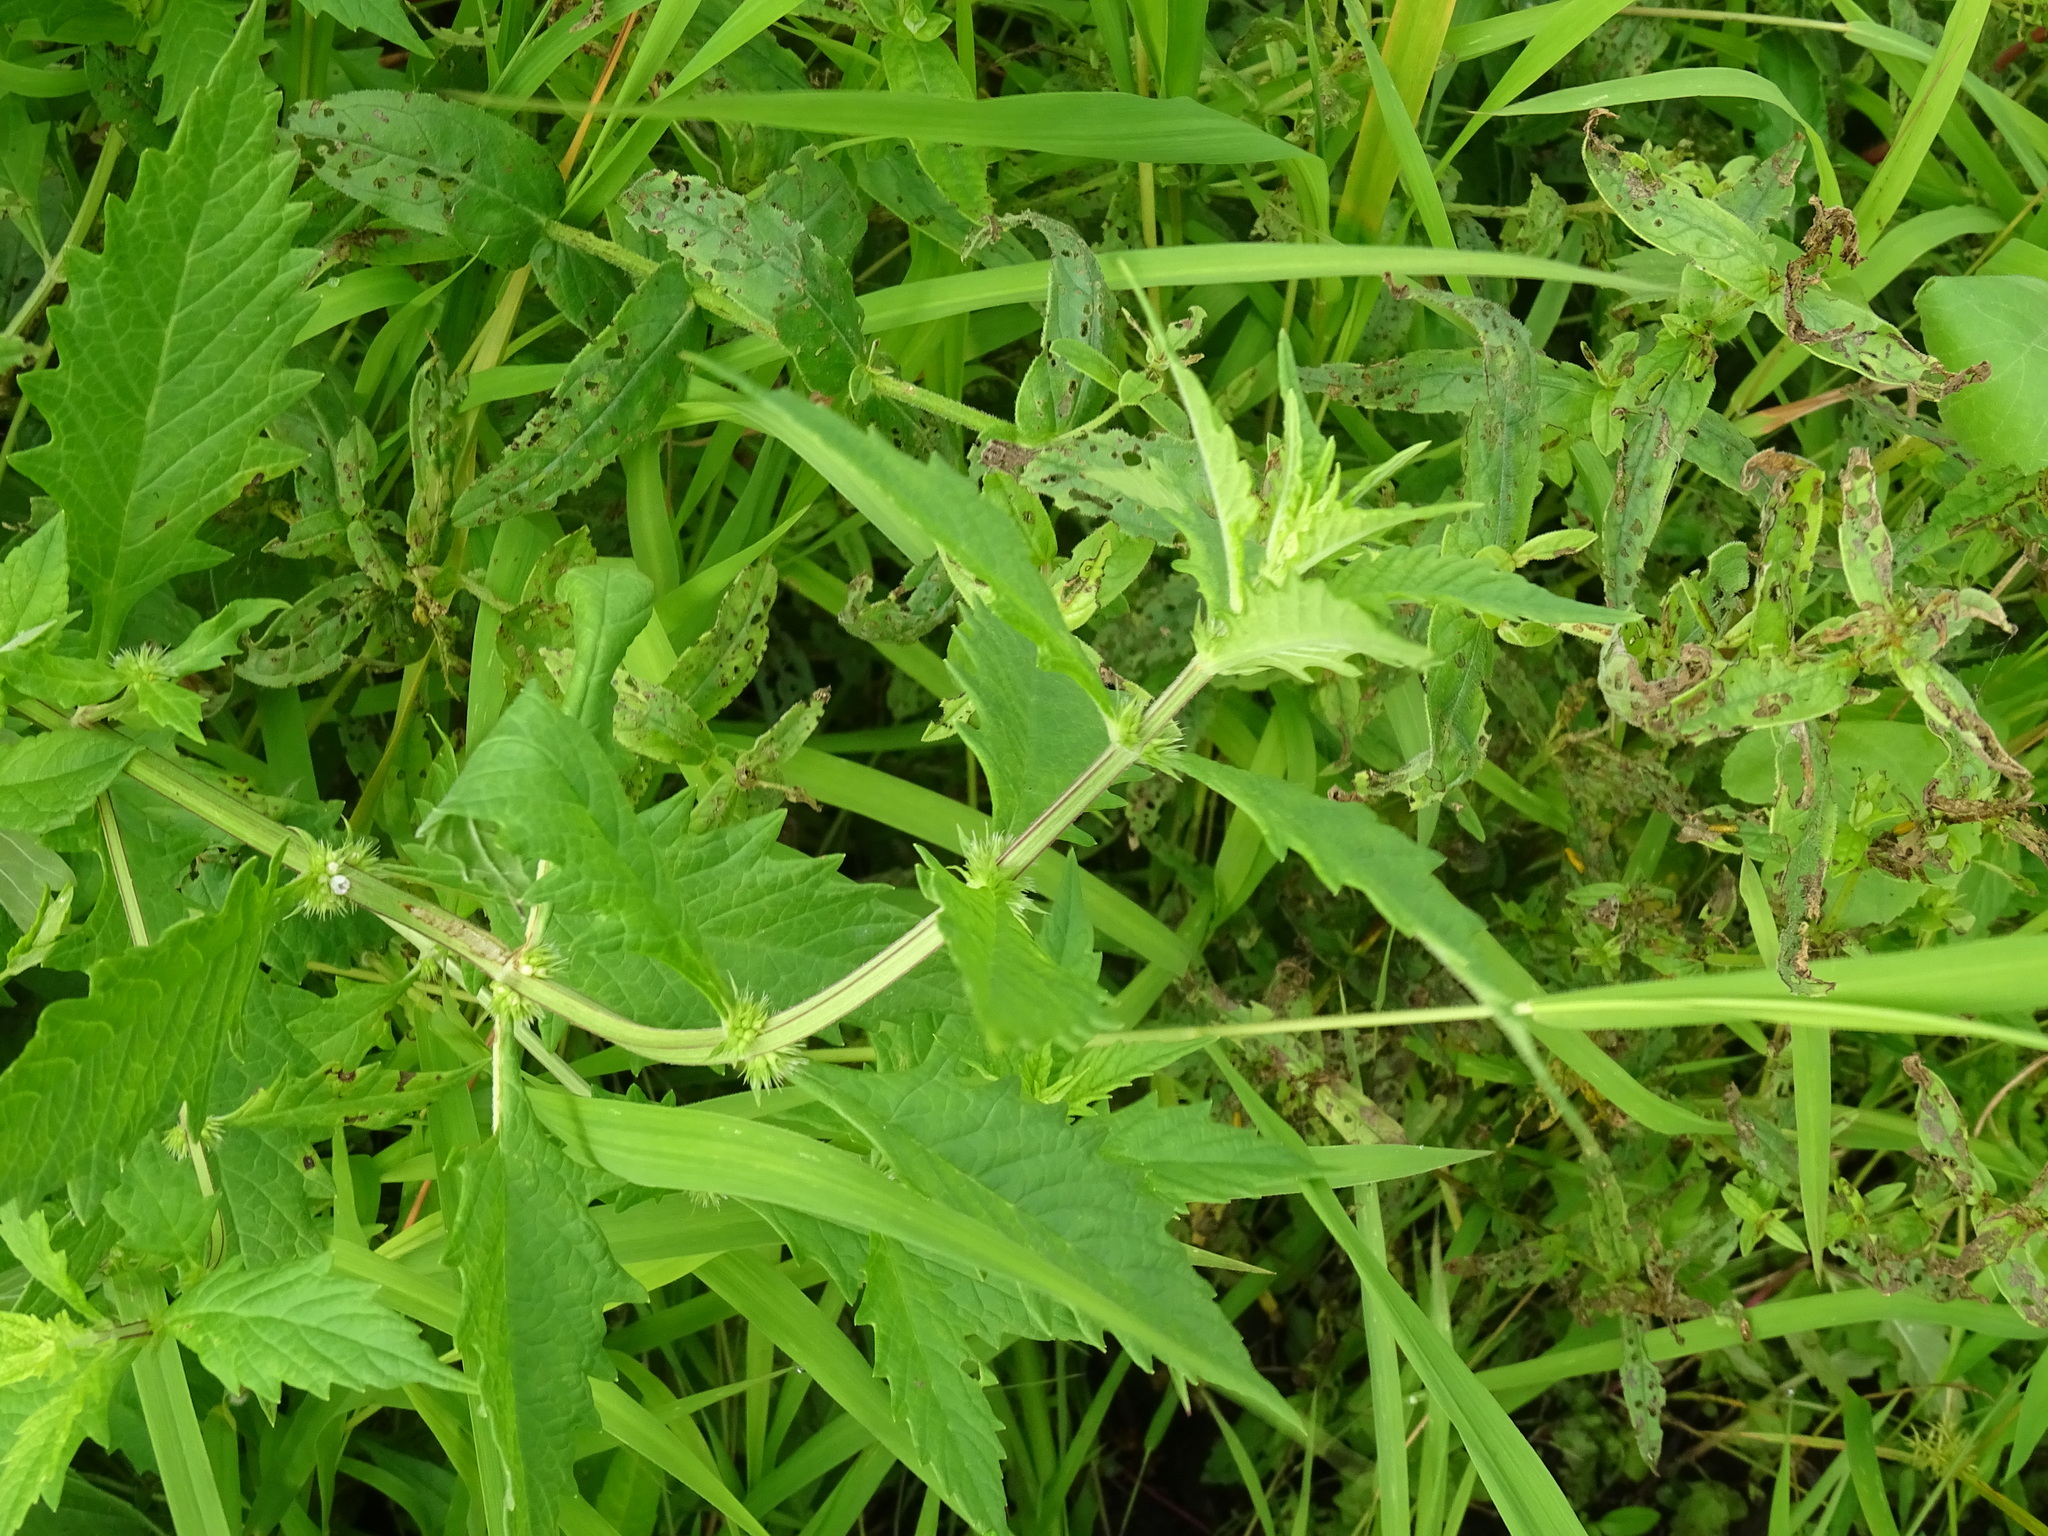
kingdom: Plantae
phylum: Tracheophyta
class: Magnoliopsida
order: Lamiales
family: Lamiaceae
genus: Lycopus
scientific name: Lycopus americanus
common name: American bugleweed
